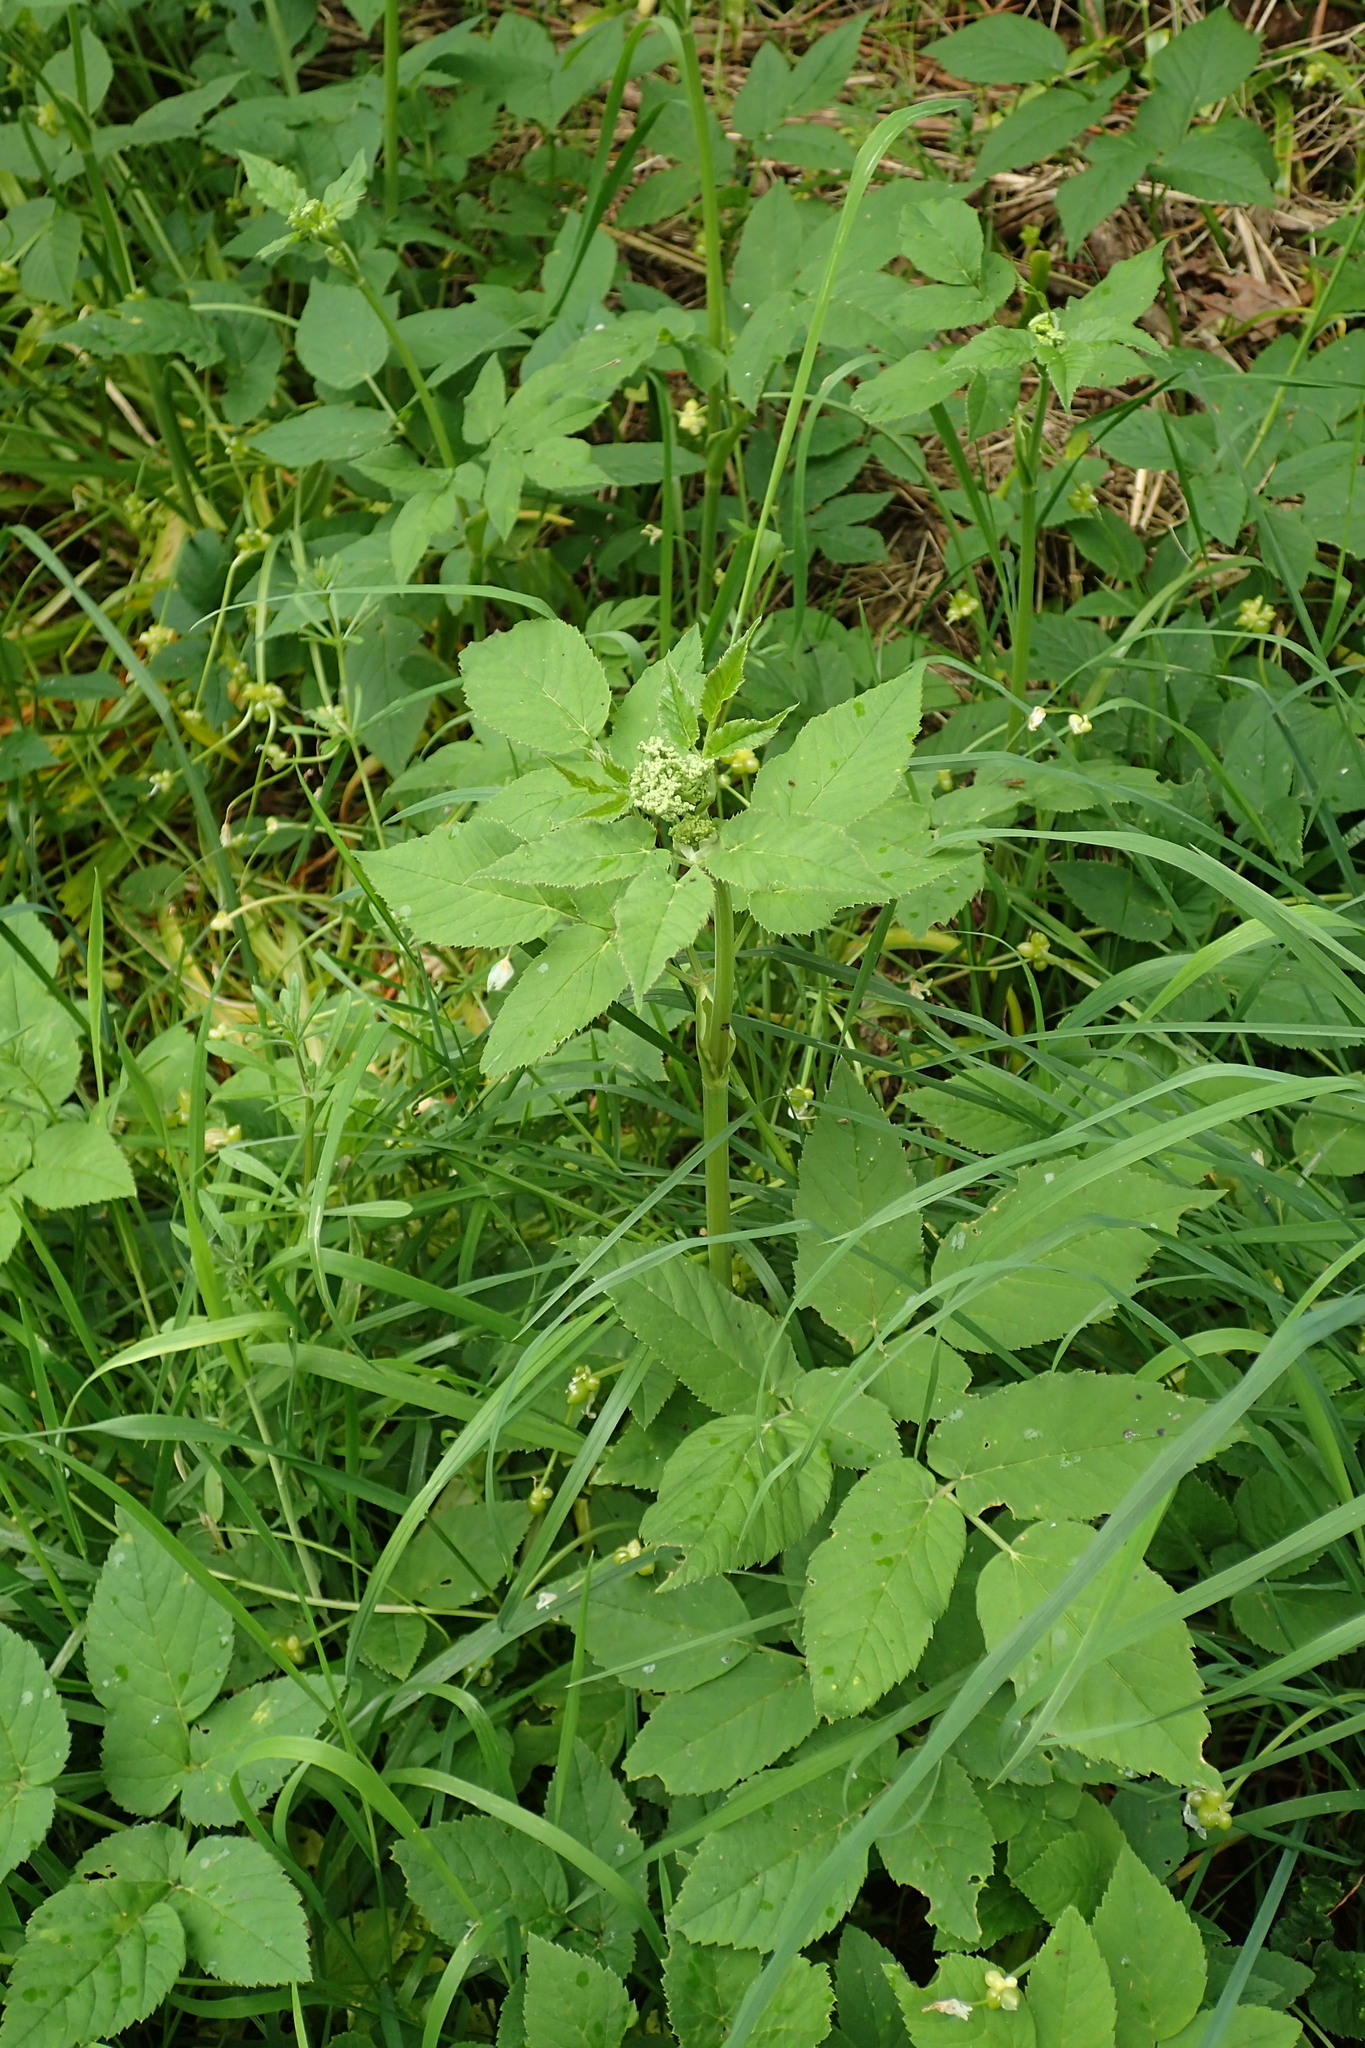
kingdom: Plantae
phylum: Tracheophyta
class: Magnoliopsida
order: Apiales
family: Apiaceae
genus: Aegopodium
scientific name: Aegopodium podagraria
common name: Ground-elder
